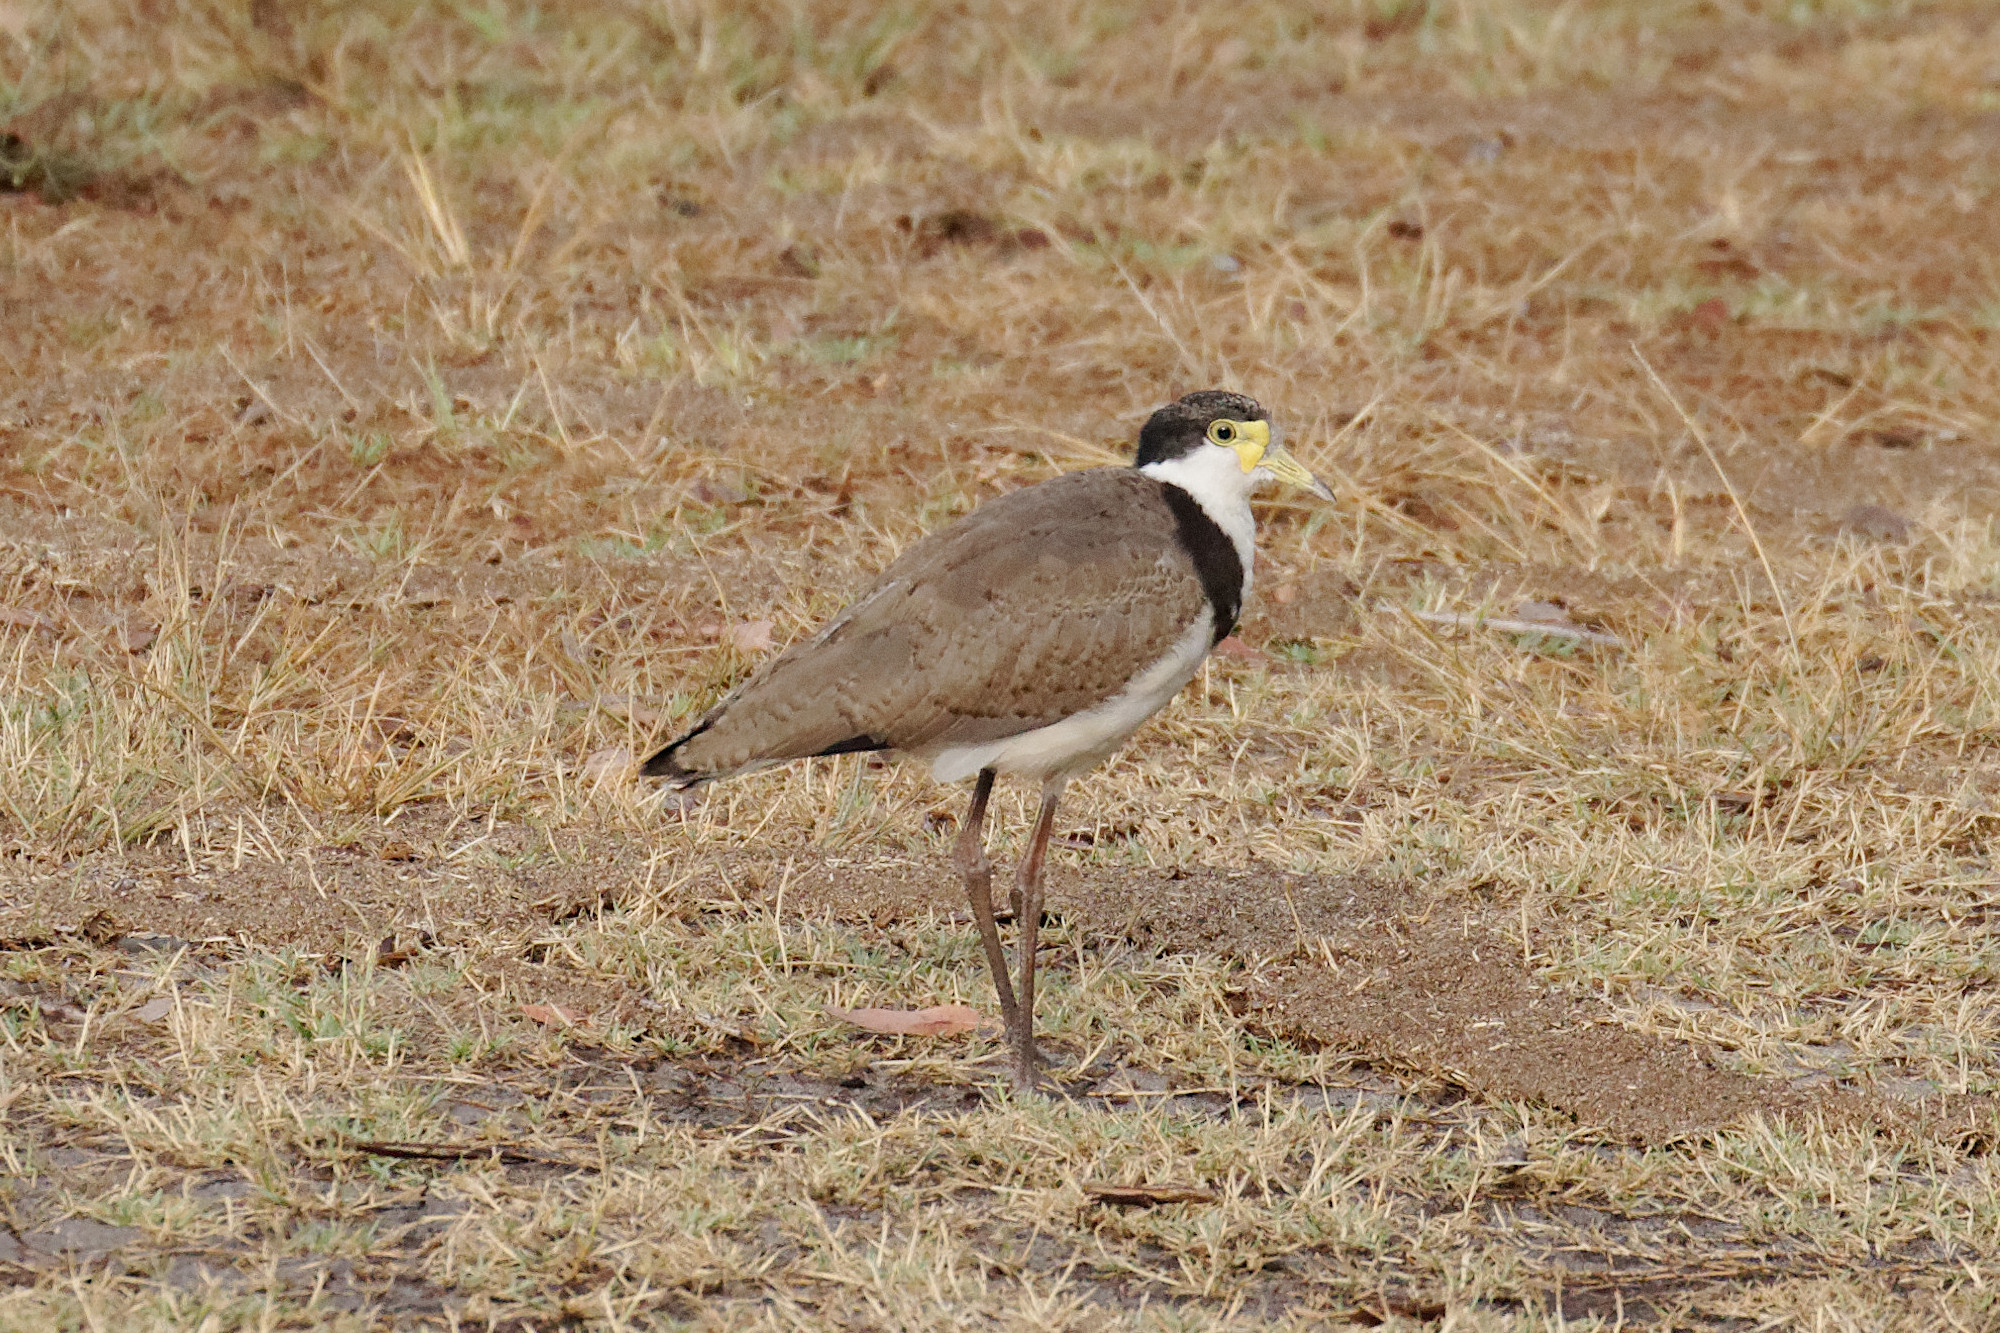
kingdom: Animalia
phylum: Chordata
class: Aves
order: Charadriiformes
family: Charadriidae
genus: Vanellus
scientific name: Vanellus miles
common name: Masked lapwing
